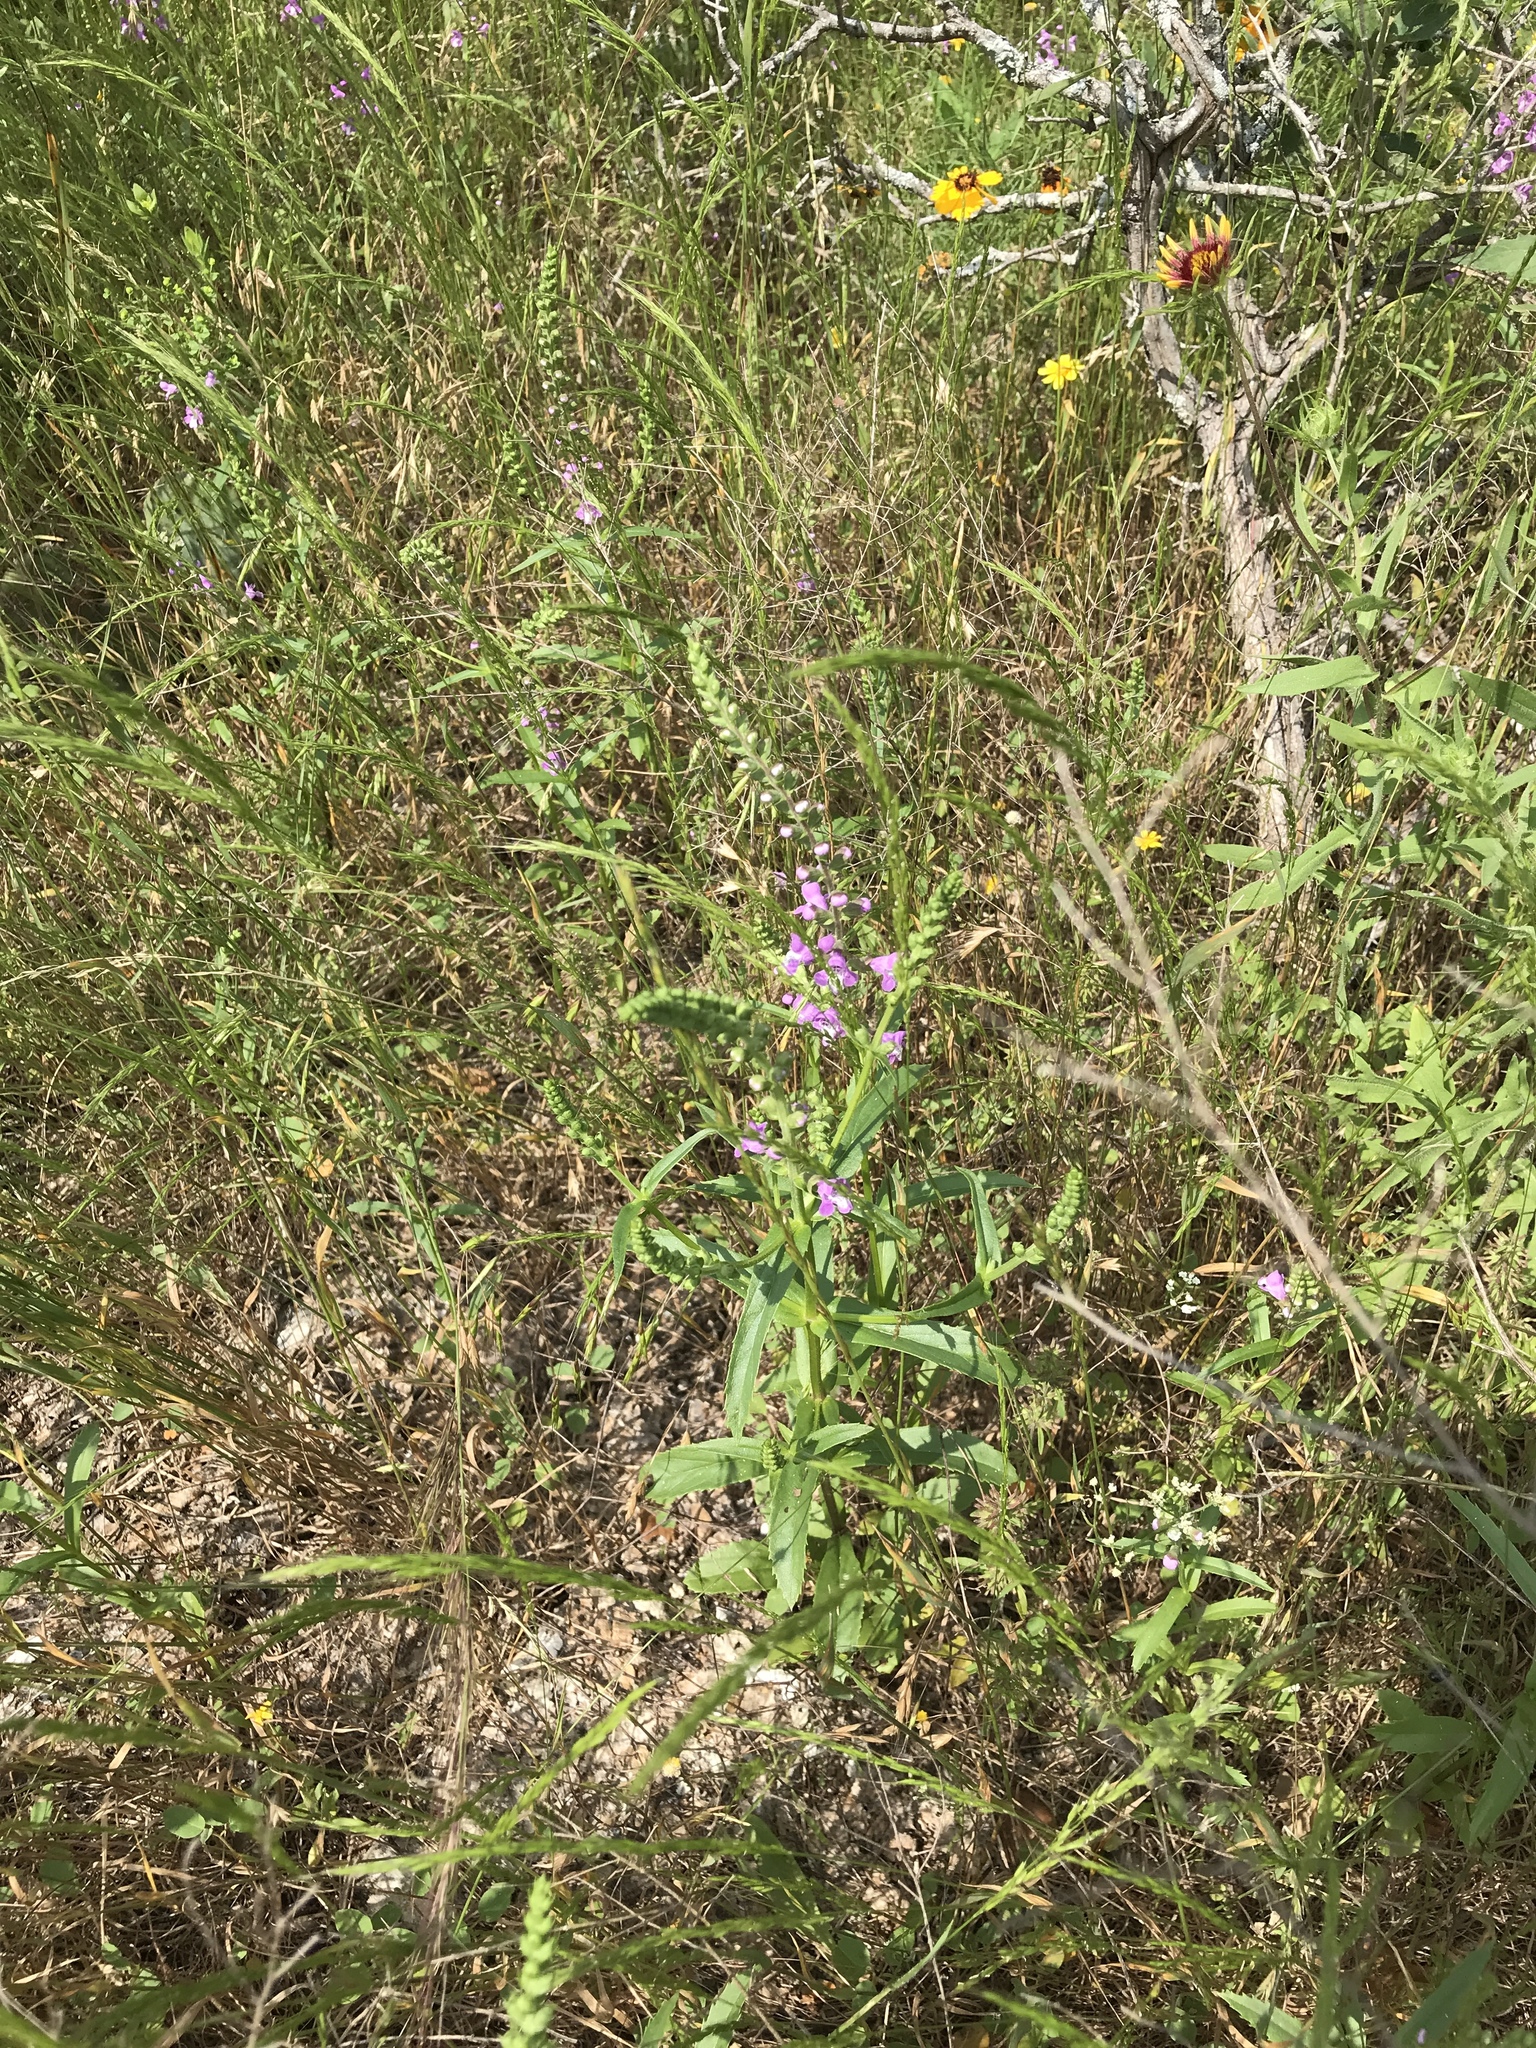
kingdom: Plantae
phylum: Tracheophyta
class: Magnoliopsida
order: Lamiales
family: Lamiaceae
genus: Warnockia
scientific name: Warnockia scutellarioides
